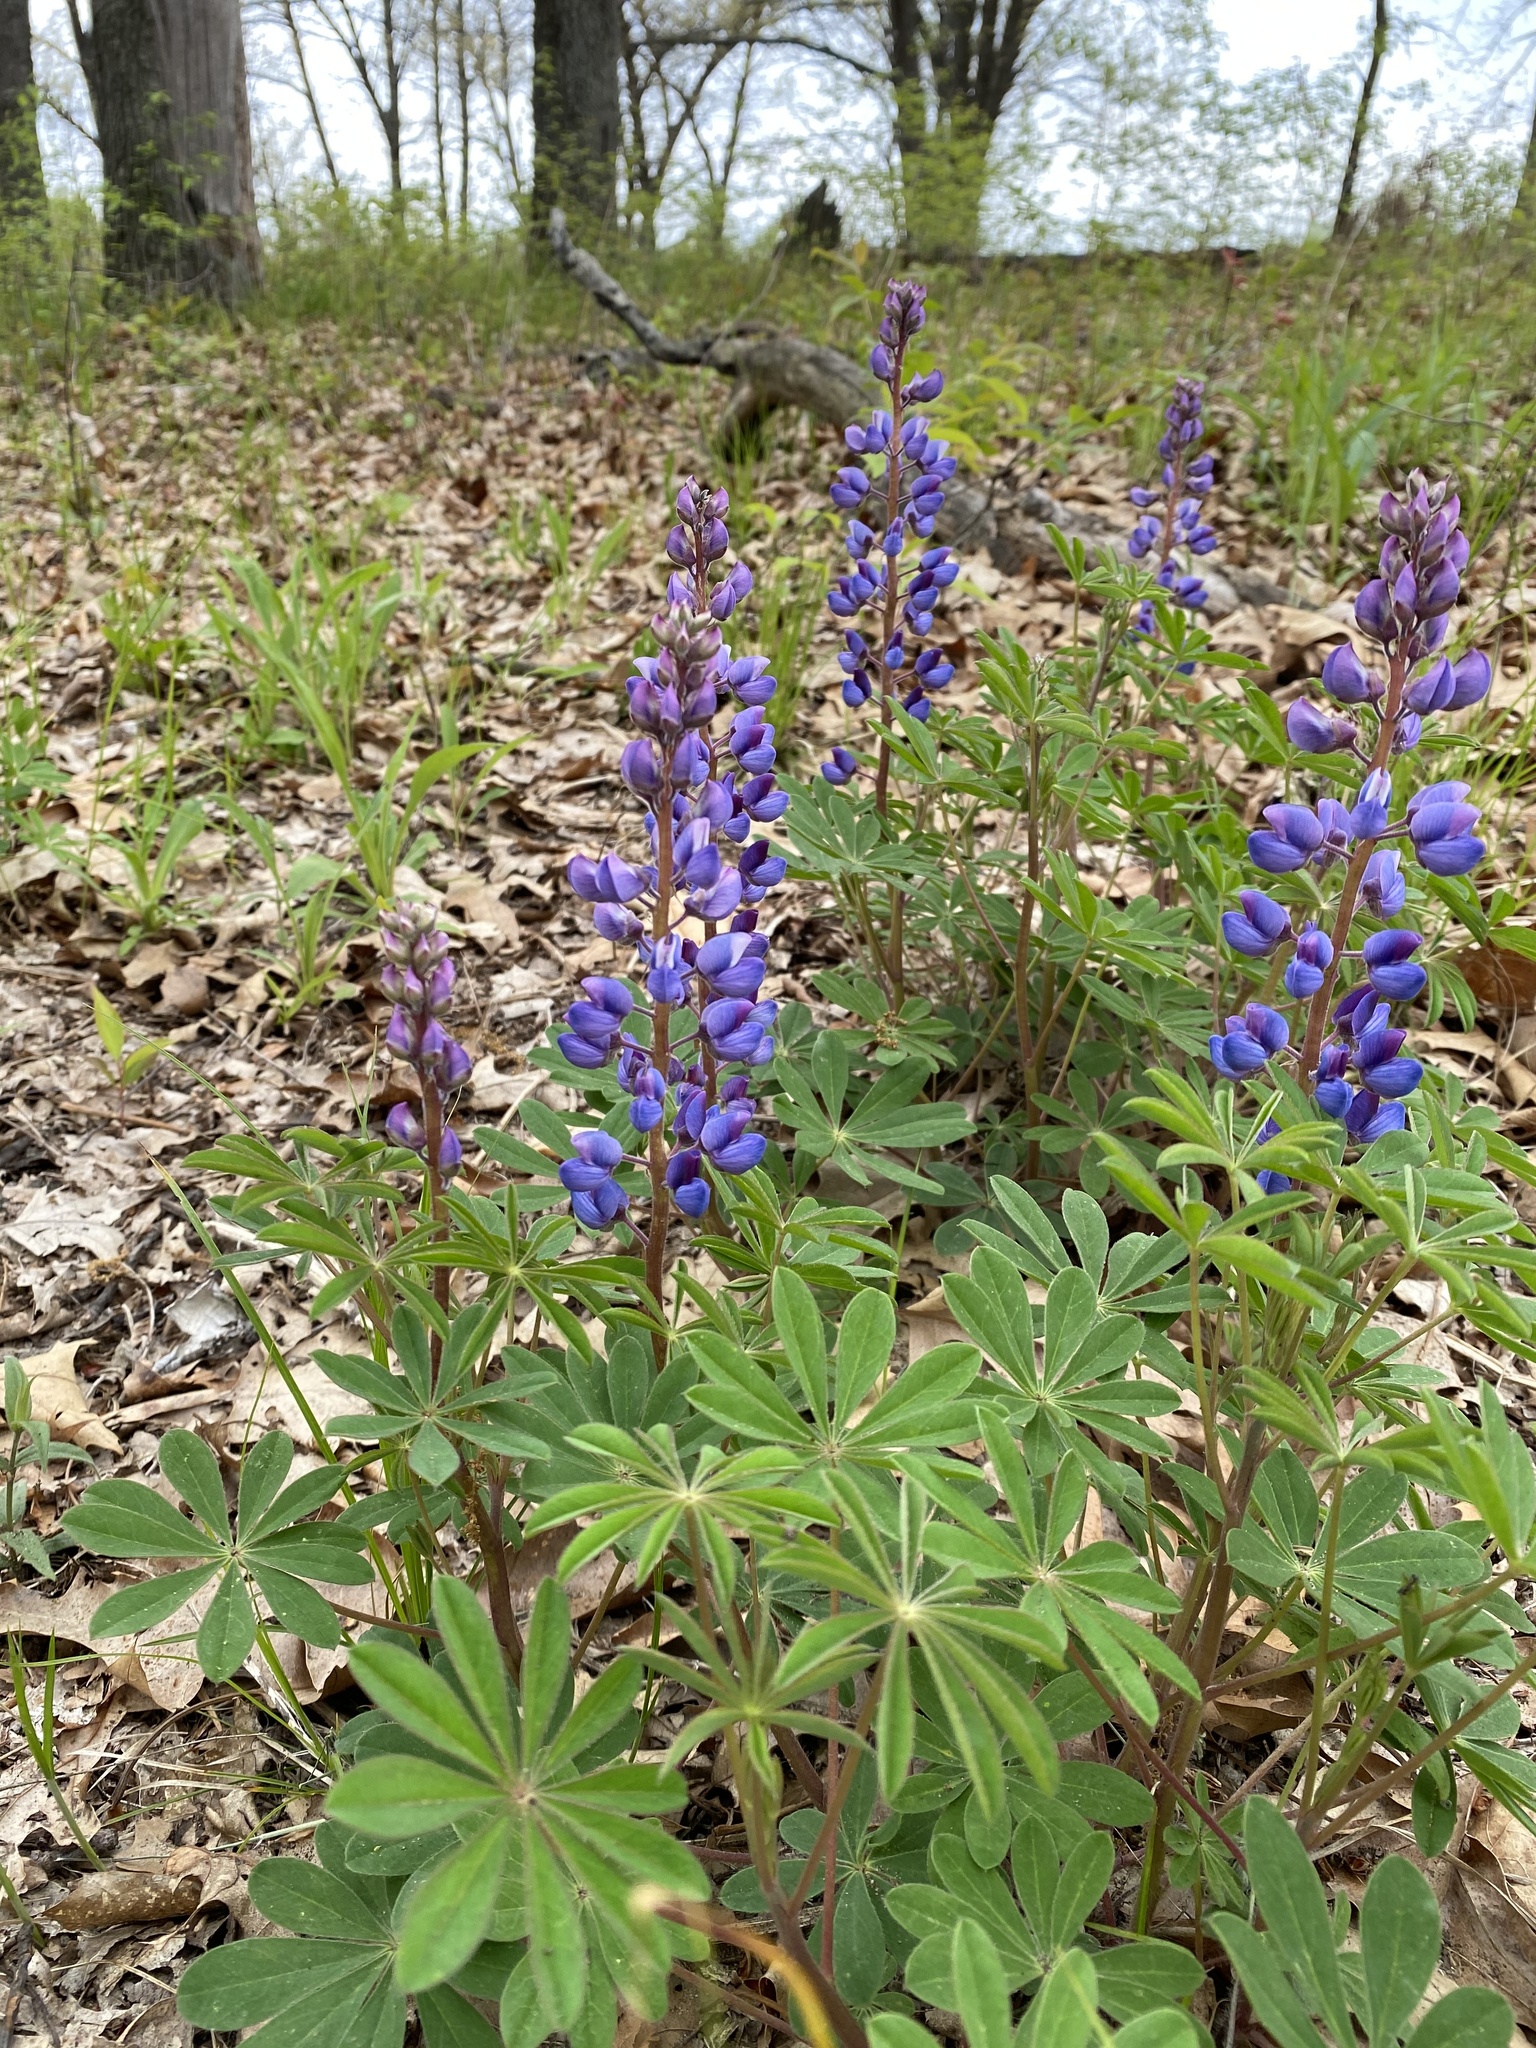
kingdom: Plantae
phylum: Tracheophyta
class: Magnoliopsida
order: Fabales
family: Fabaceae
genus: Lupinus
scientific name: Lupinus perennis
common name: Sundial lupine
